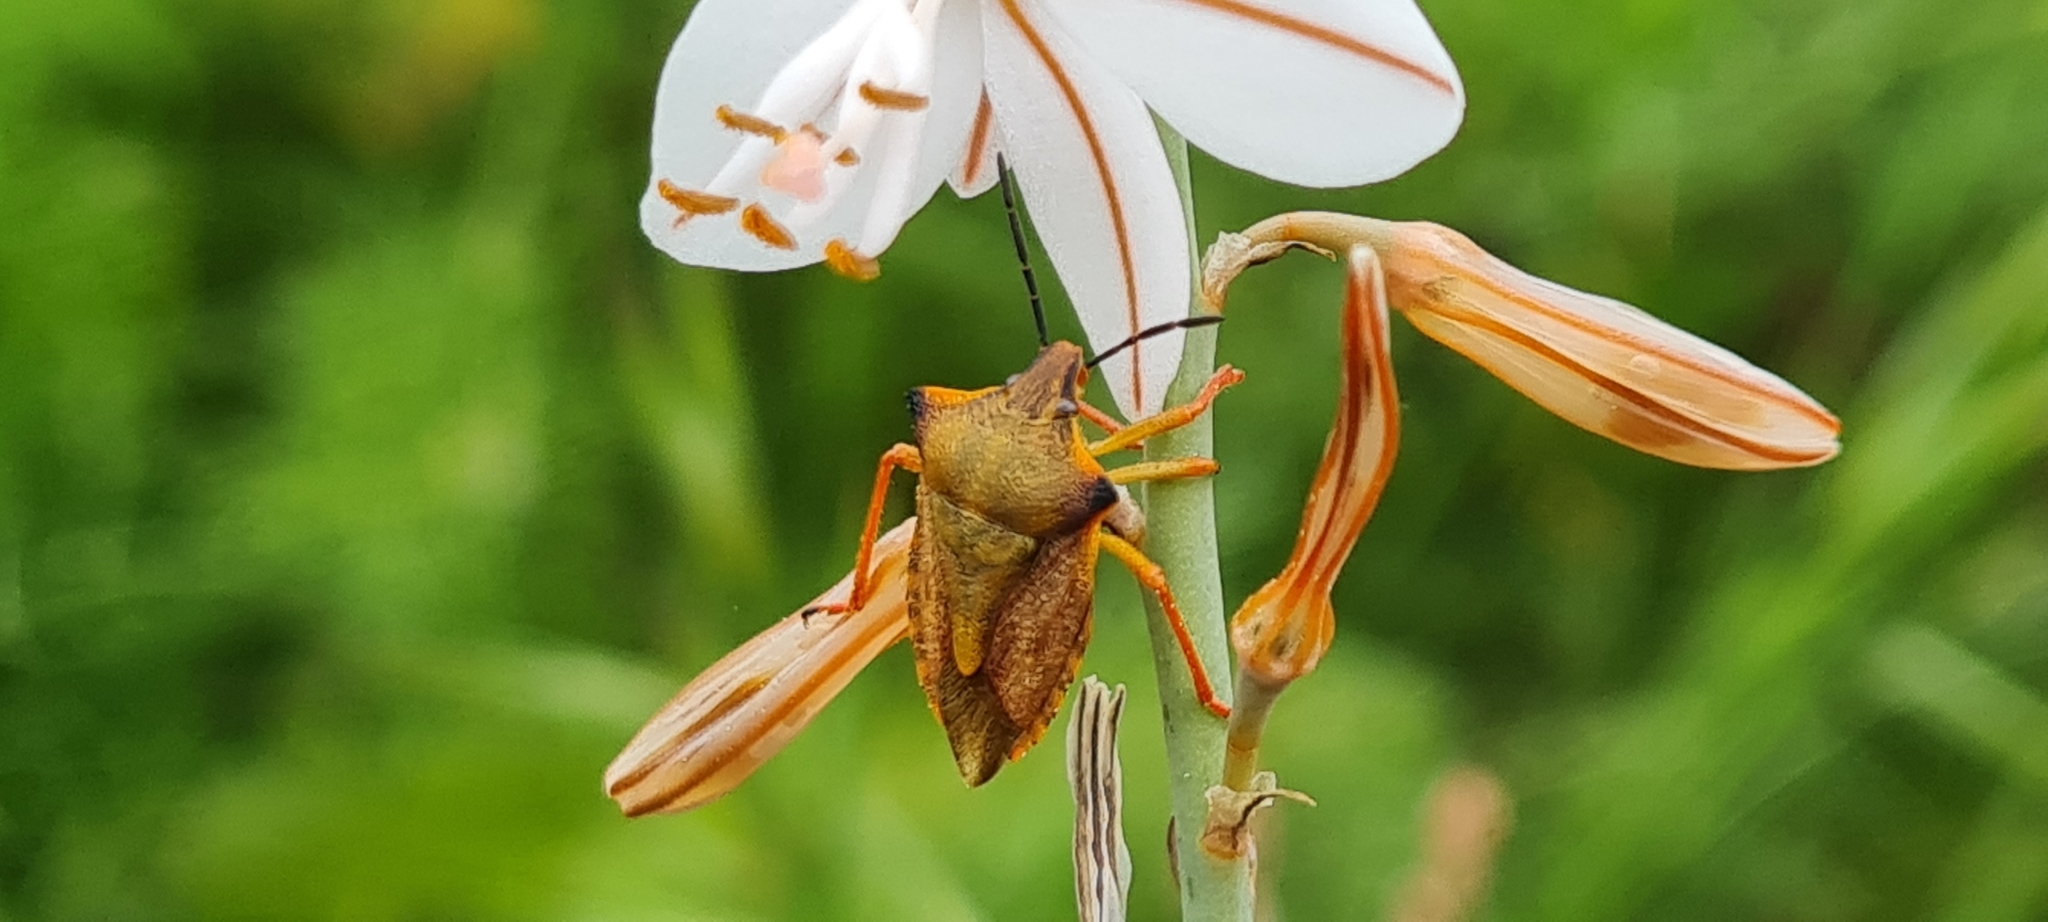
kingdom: Animalia
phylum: Arthropoda
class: Insecta
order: Hemiptera
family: Pentatomidae
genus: Carpocoris
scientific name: Carpocoris mediterraneus
